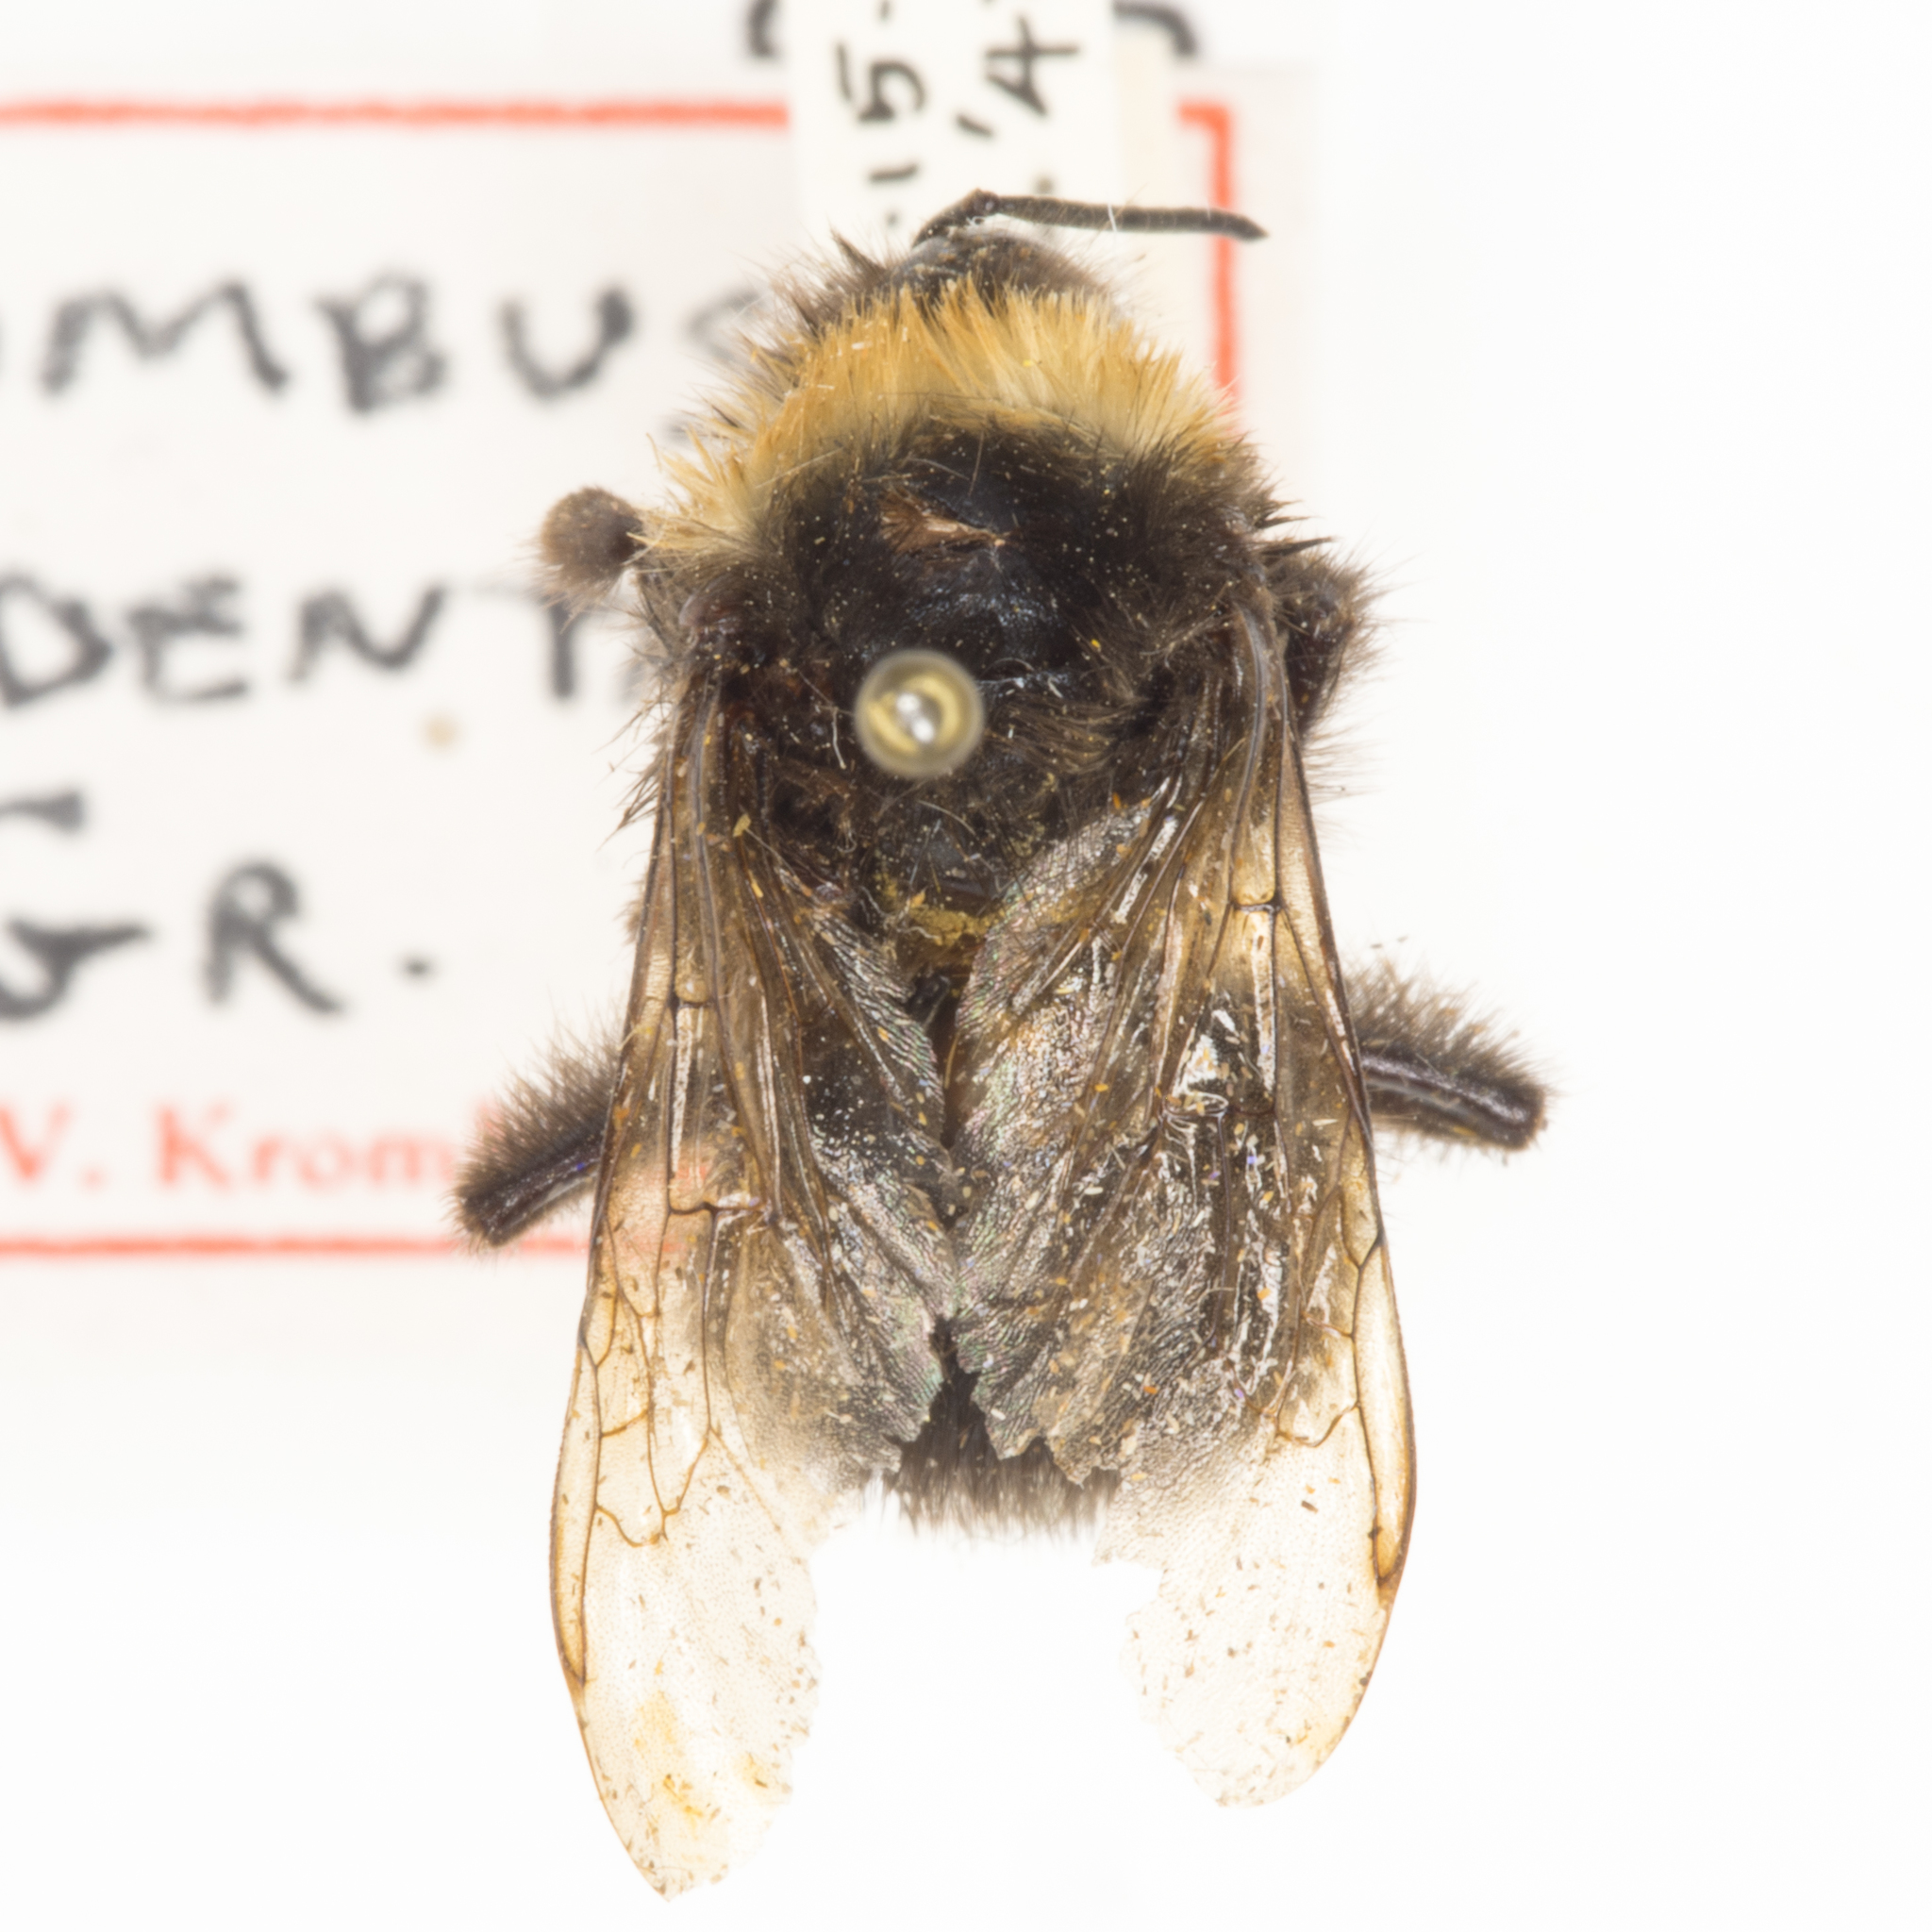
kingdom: Animalia
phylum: Arthropoda
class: Insecta
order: Hymenoptera
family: Apidae
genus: Bombus
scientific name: Bombus occidentalis
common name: Western bumble bee
